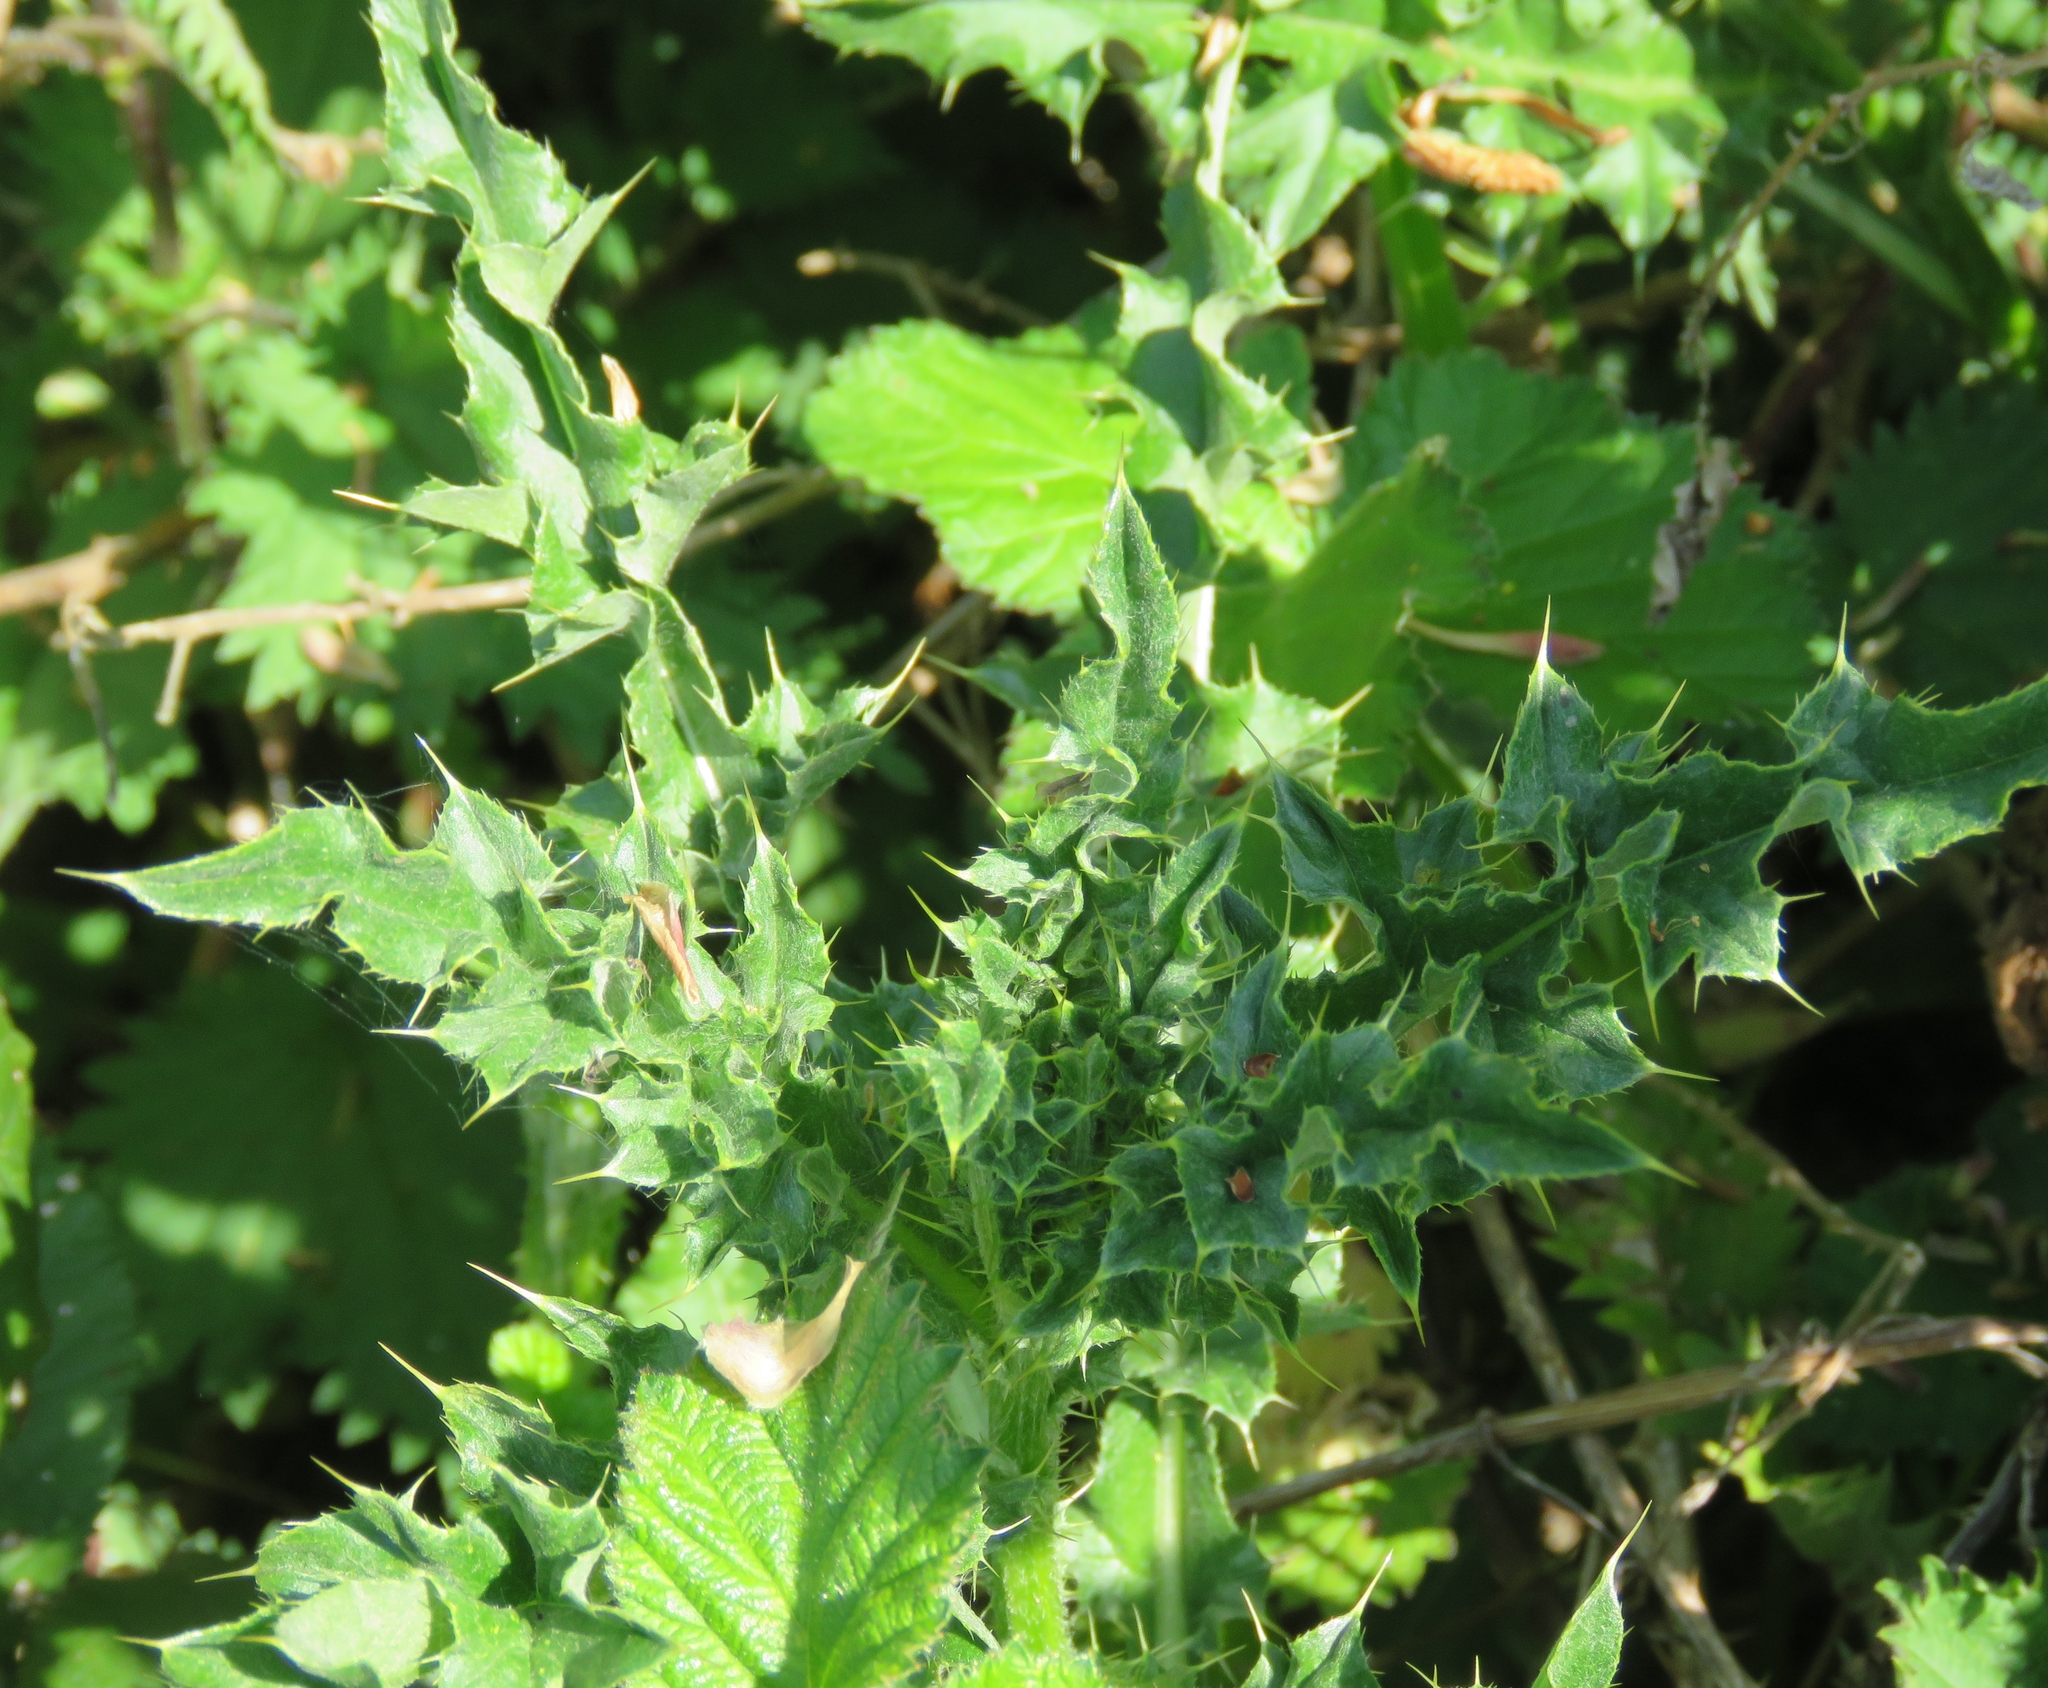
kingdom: Plantae
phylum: Tracheophyta
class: Magnoliopsida
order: Asterales
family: Asteraceae
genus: Cirsium
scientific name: Cirsium arvense
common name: Creeping thistle
